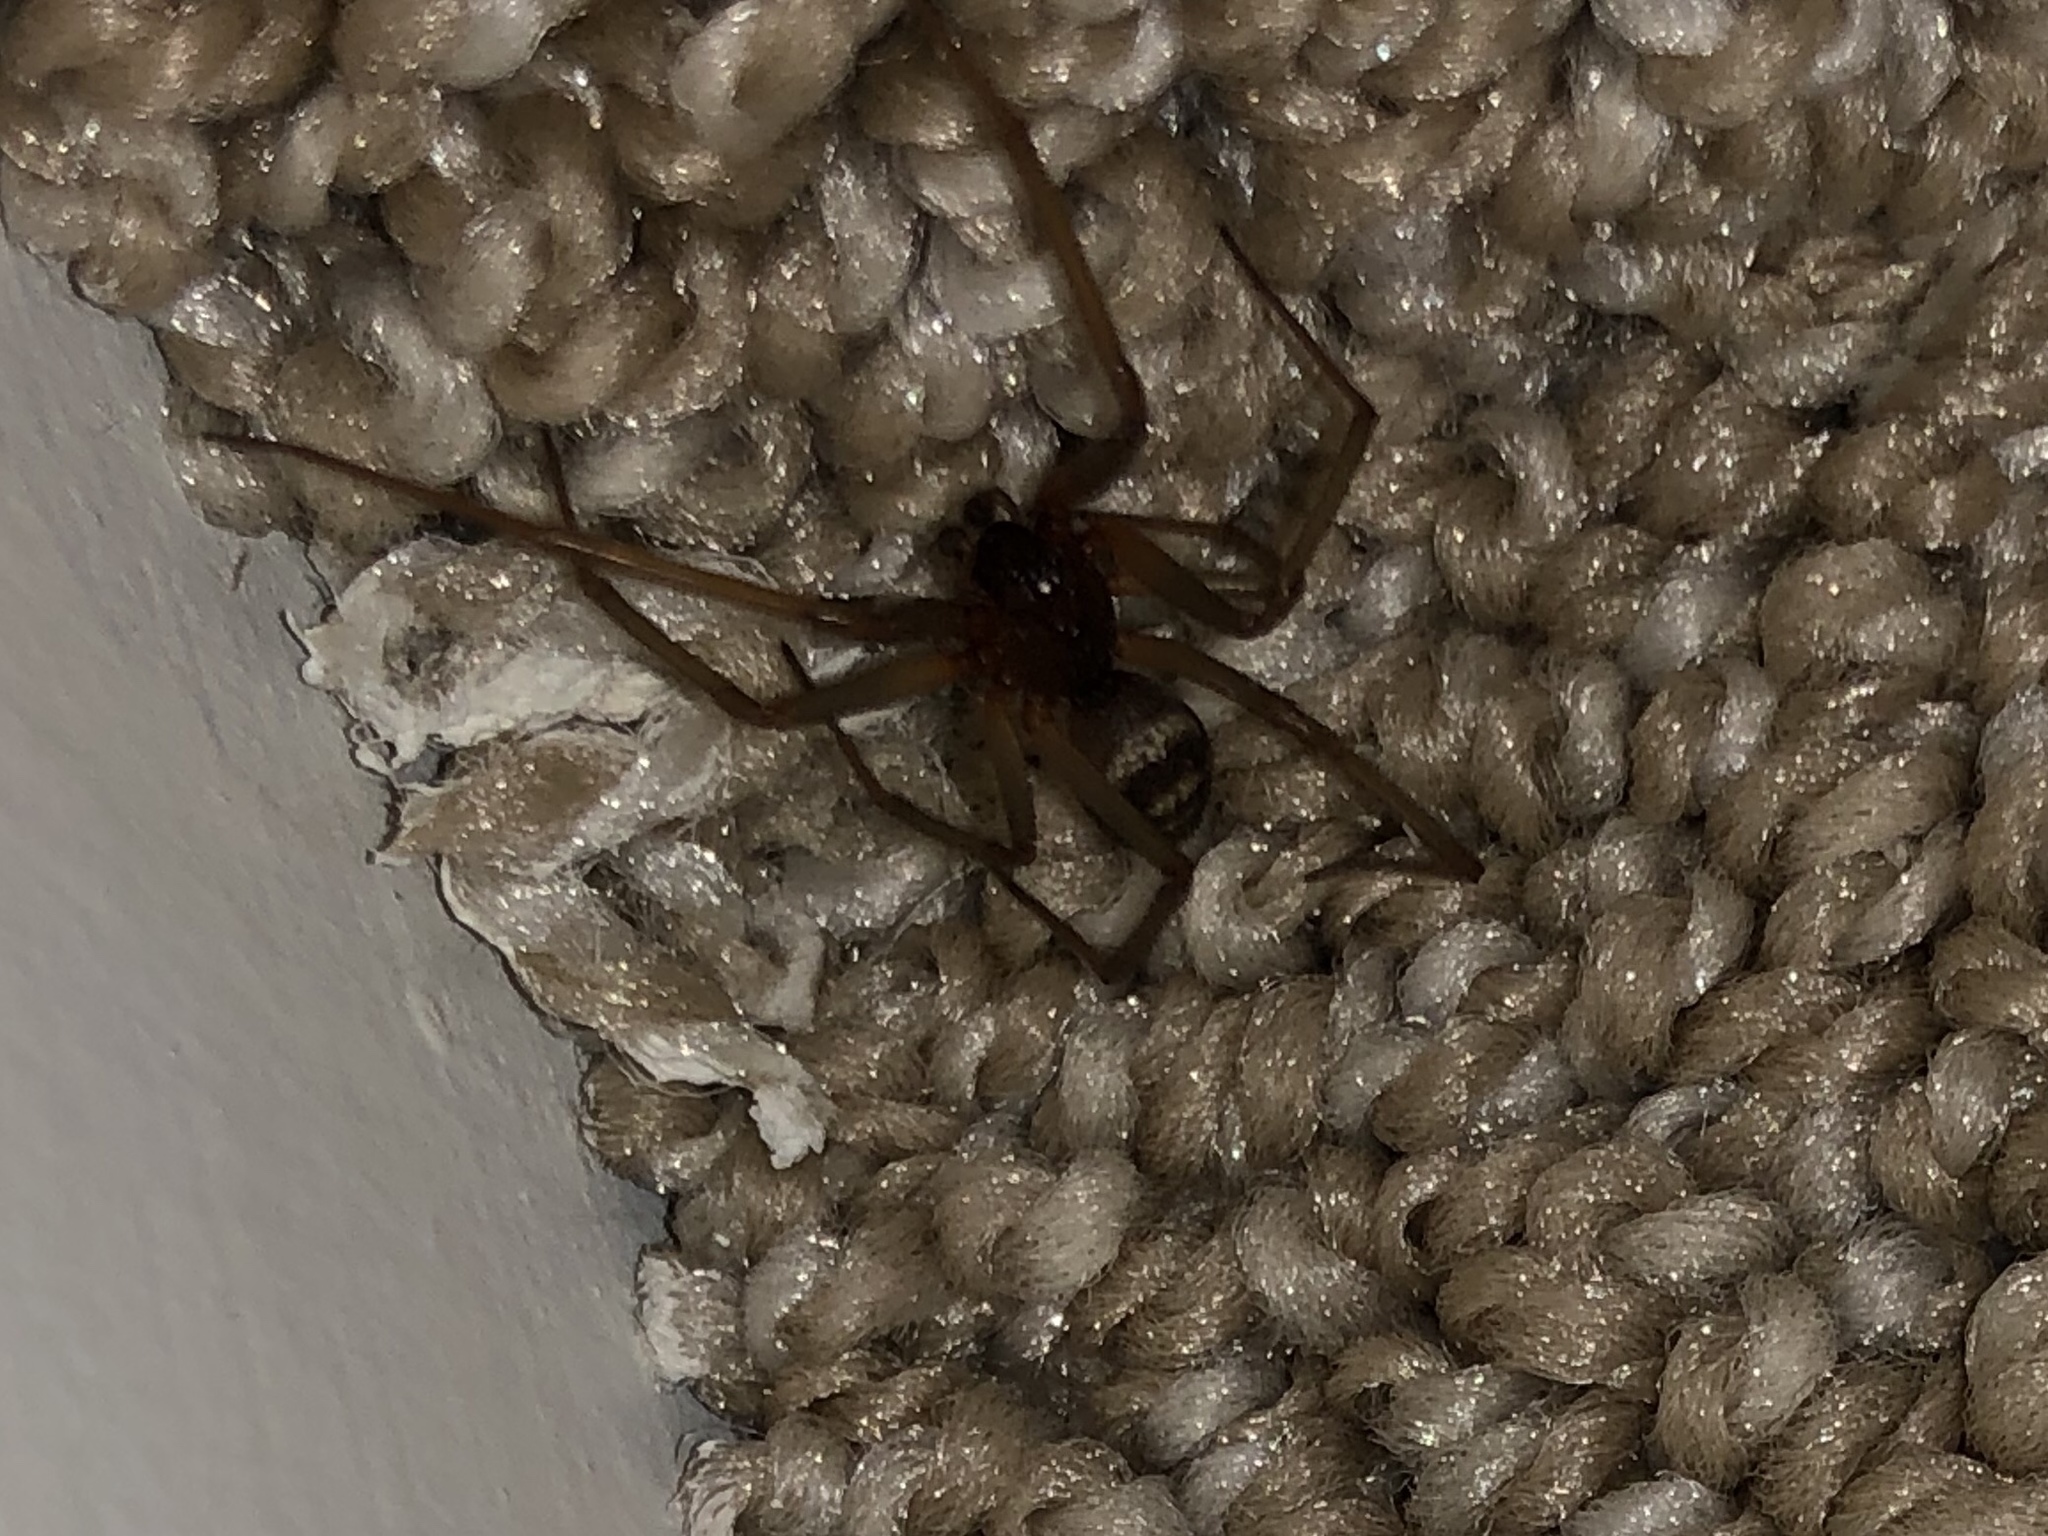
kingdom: Animalia
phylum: Arthropoda
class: Arachnida
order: Araneae
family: Theridiidae
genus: Steatoda
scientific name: Steatoda grossa
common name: False black widow
